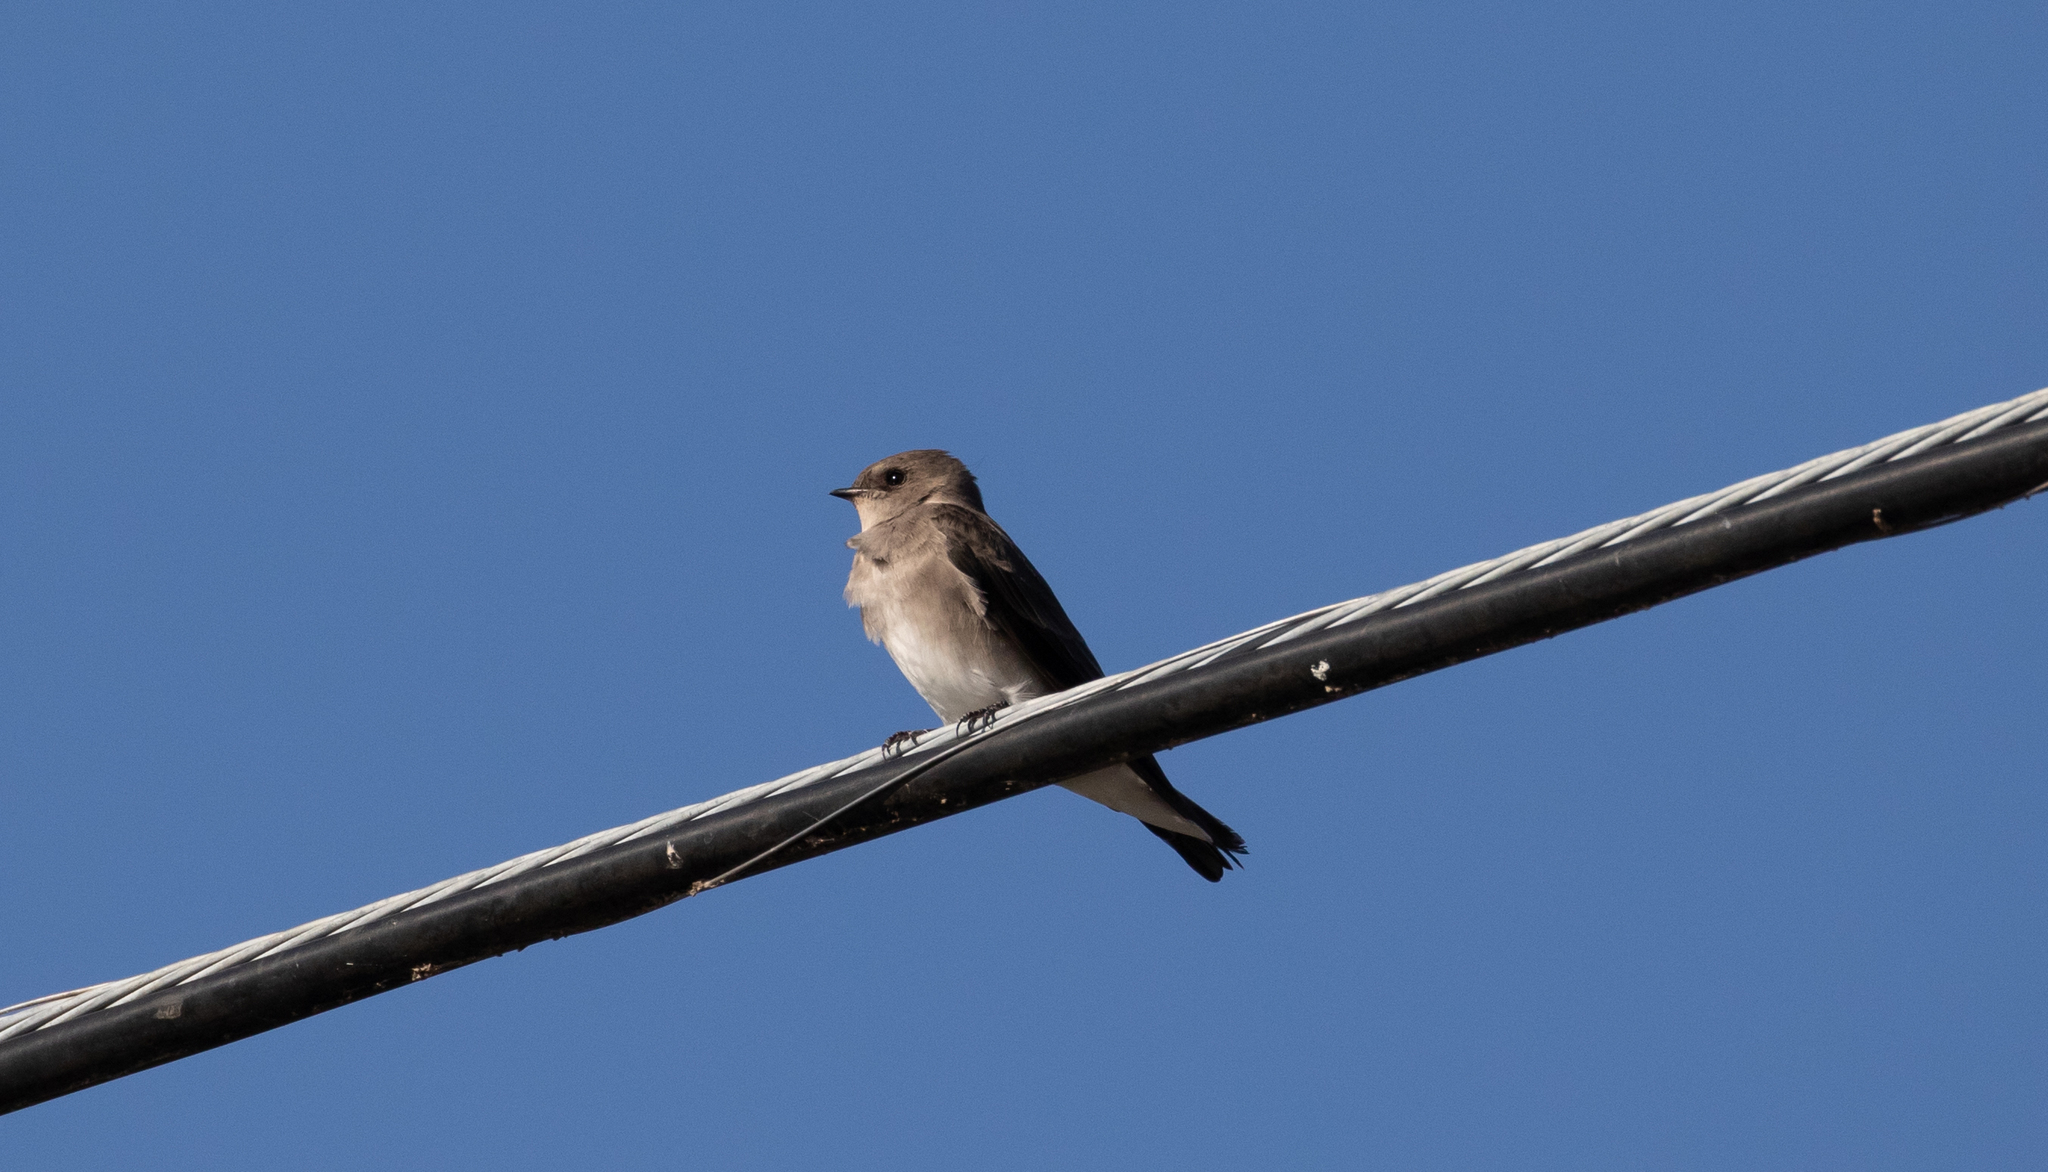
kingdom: Animalia
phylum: Chordata
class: Aves
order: Passeriformes
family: Hirundinidae
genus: Stelgidopteryx
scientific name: Stelgidopteryx serripennis
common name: Northern rough-winged swallow
